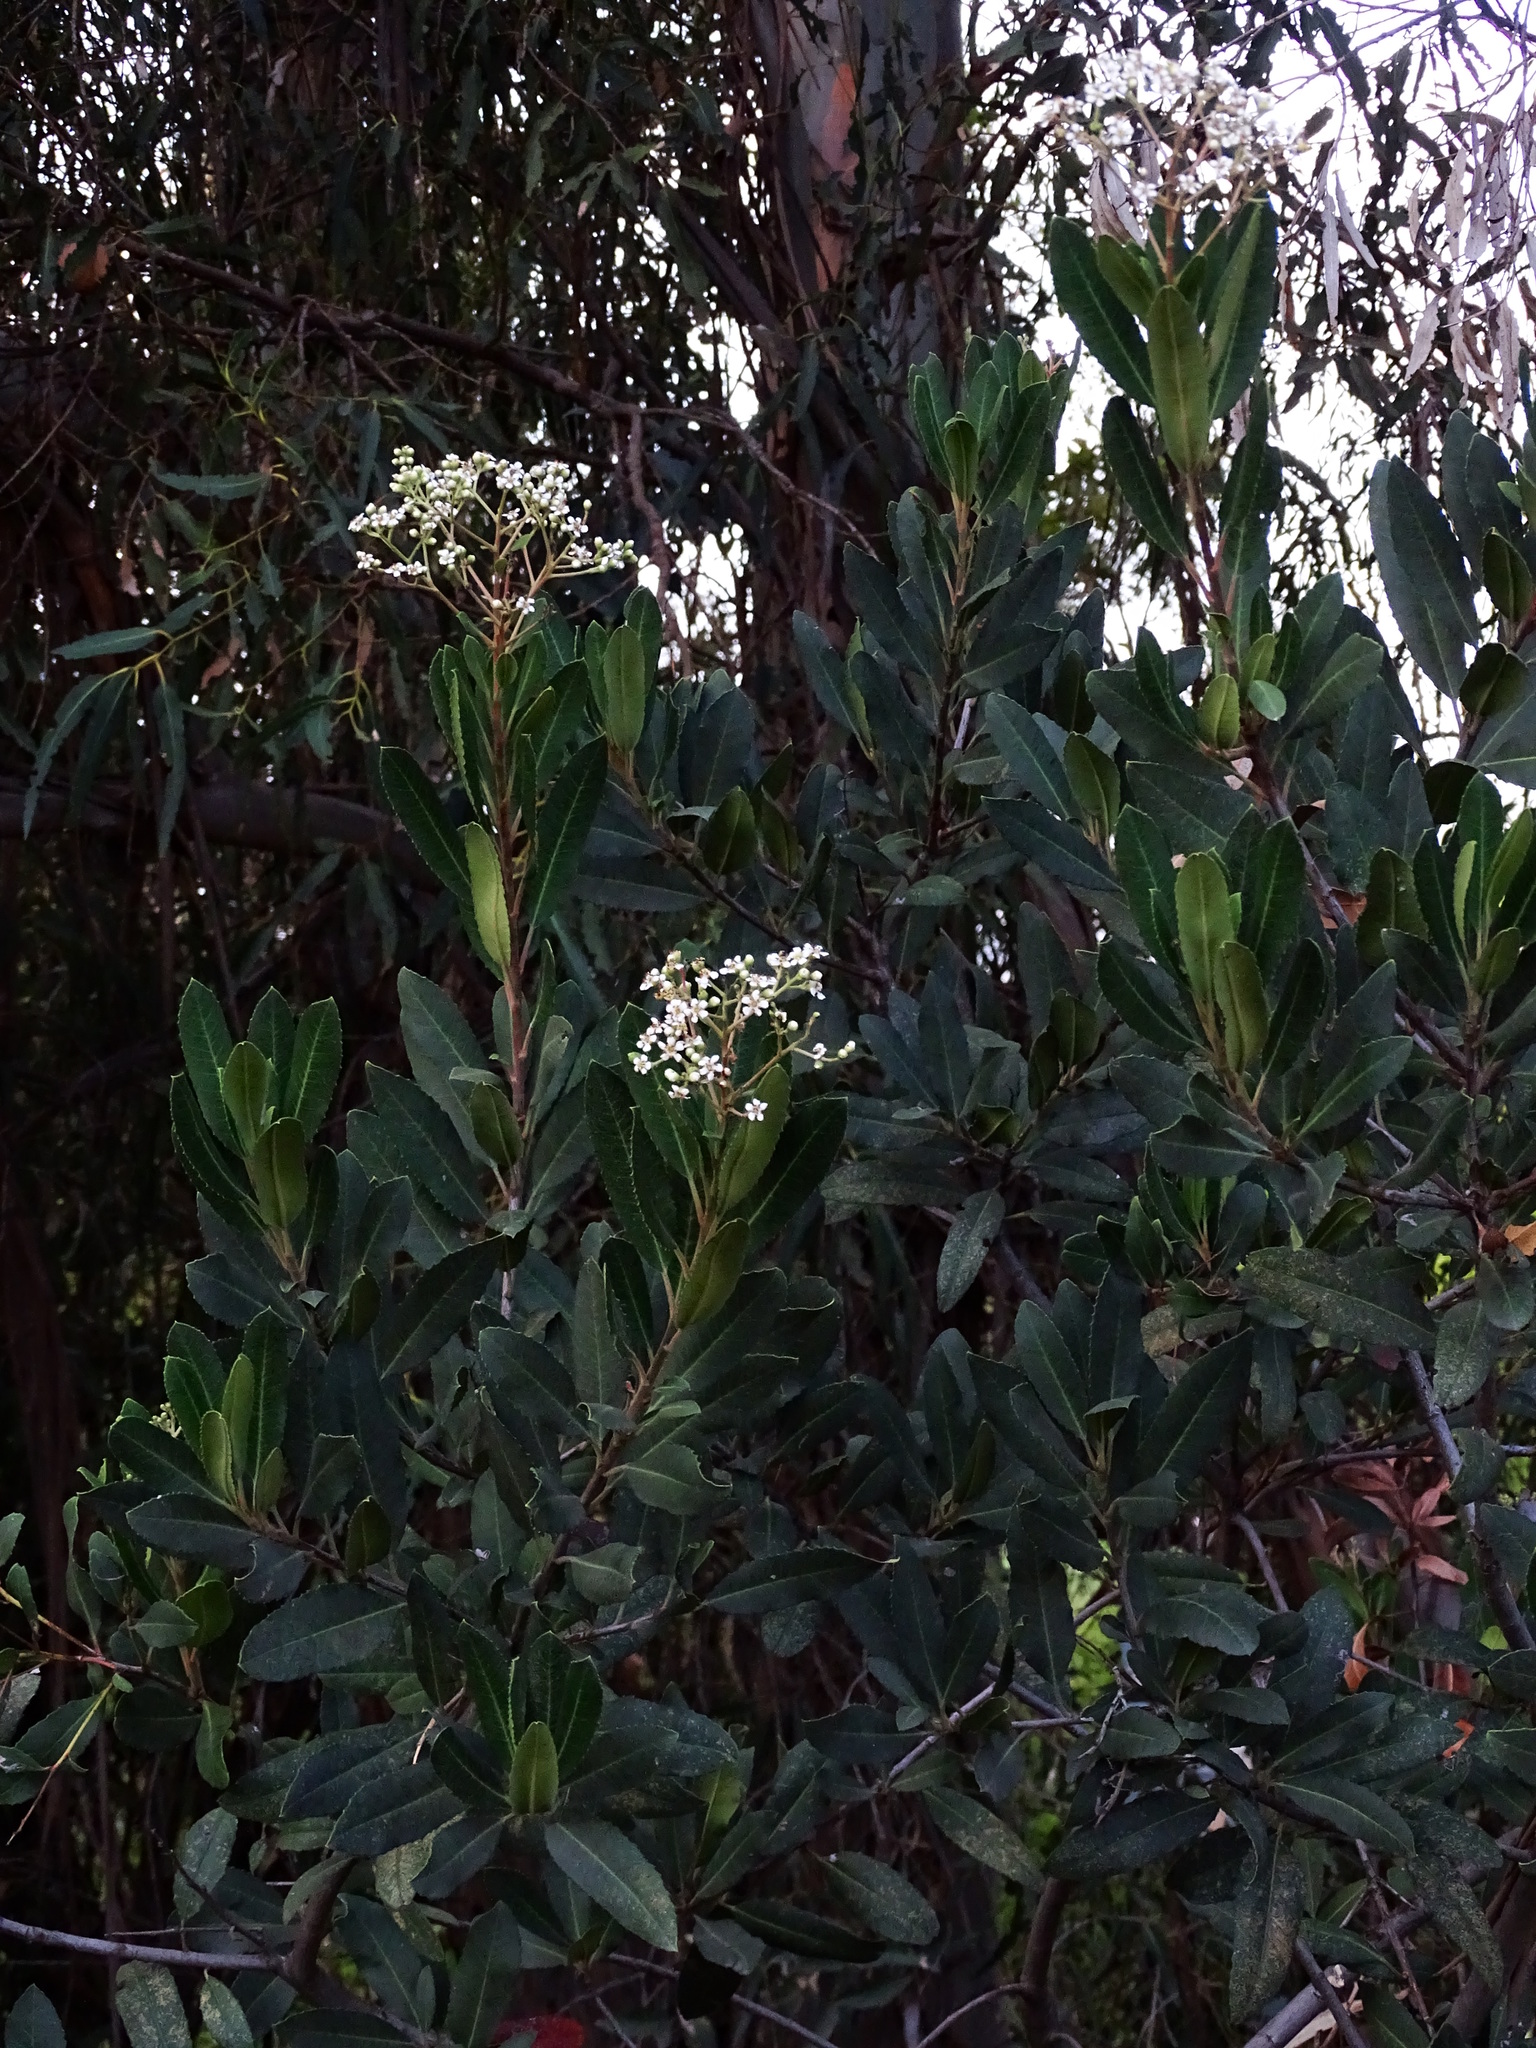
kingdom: Plantae
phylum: Tracheophyta
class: Magnoliopsida
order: Rosales
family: Rosaceae
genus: Heteromeles
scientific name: Heteromeles arbutifolia
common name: California-holly
